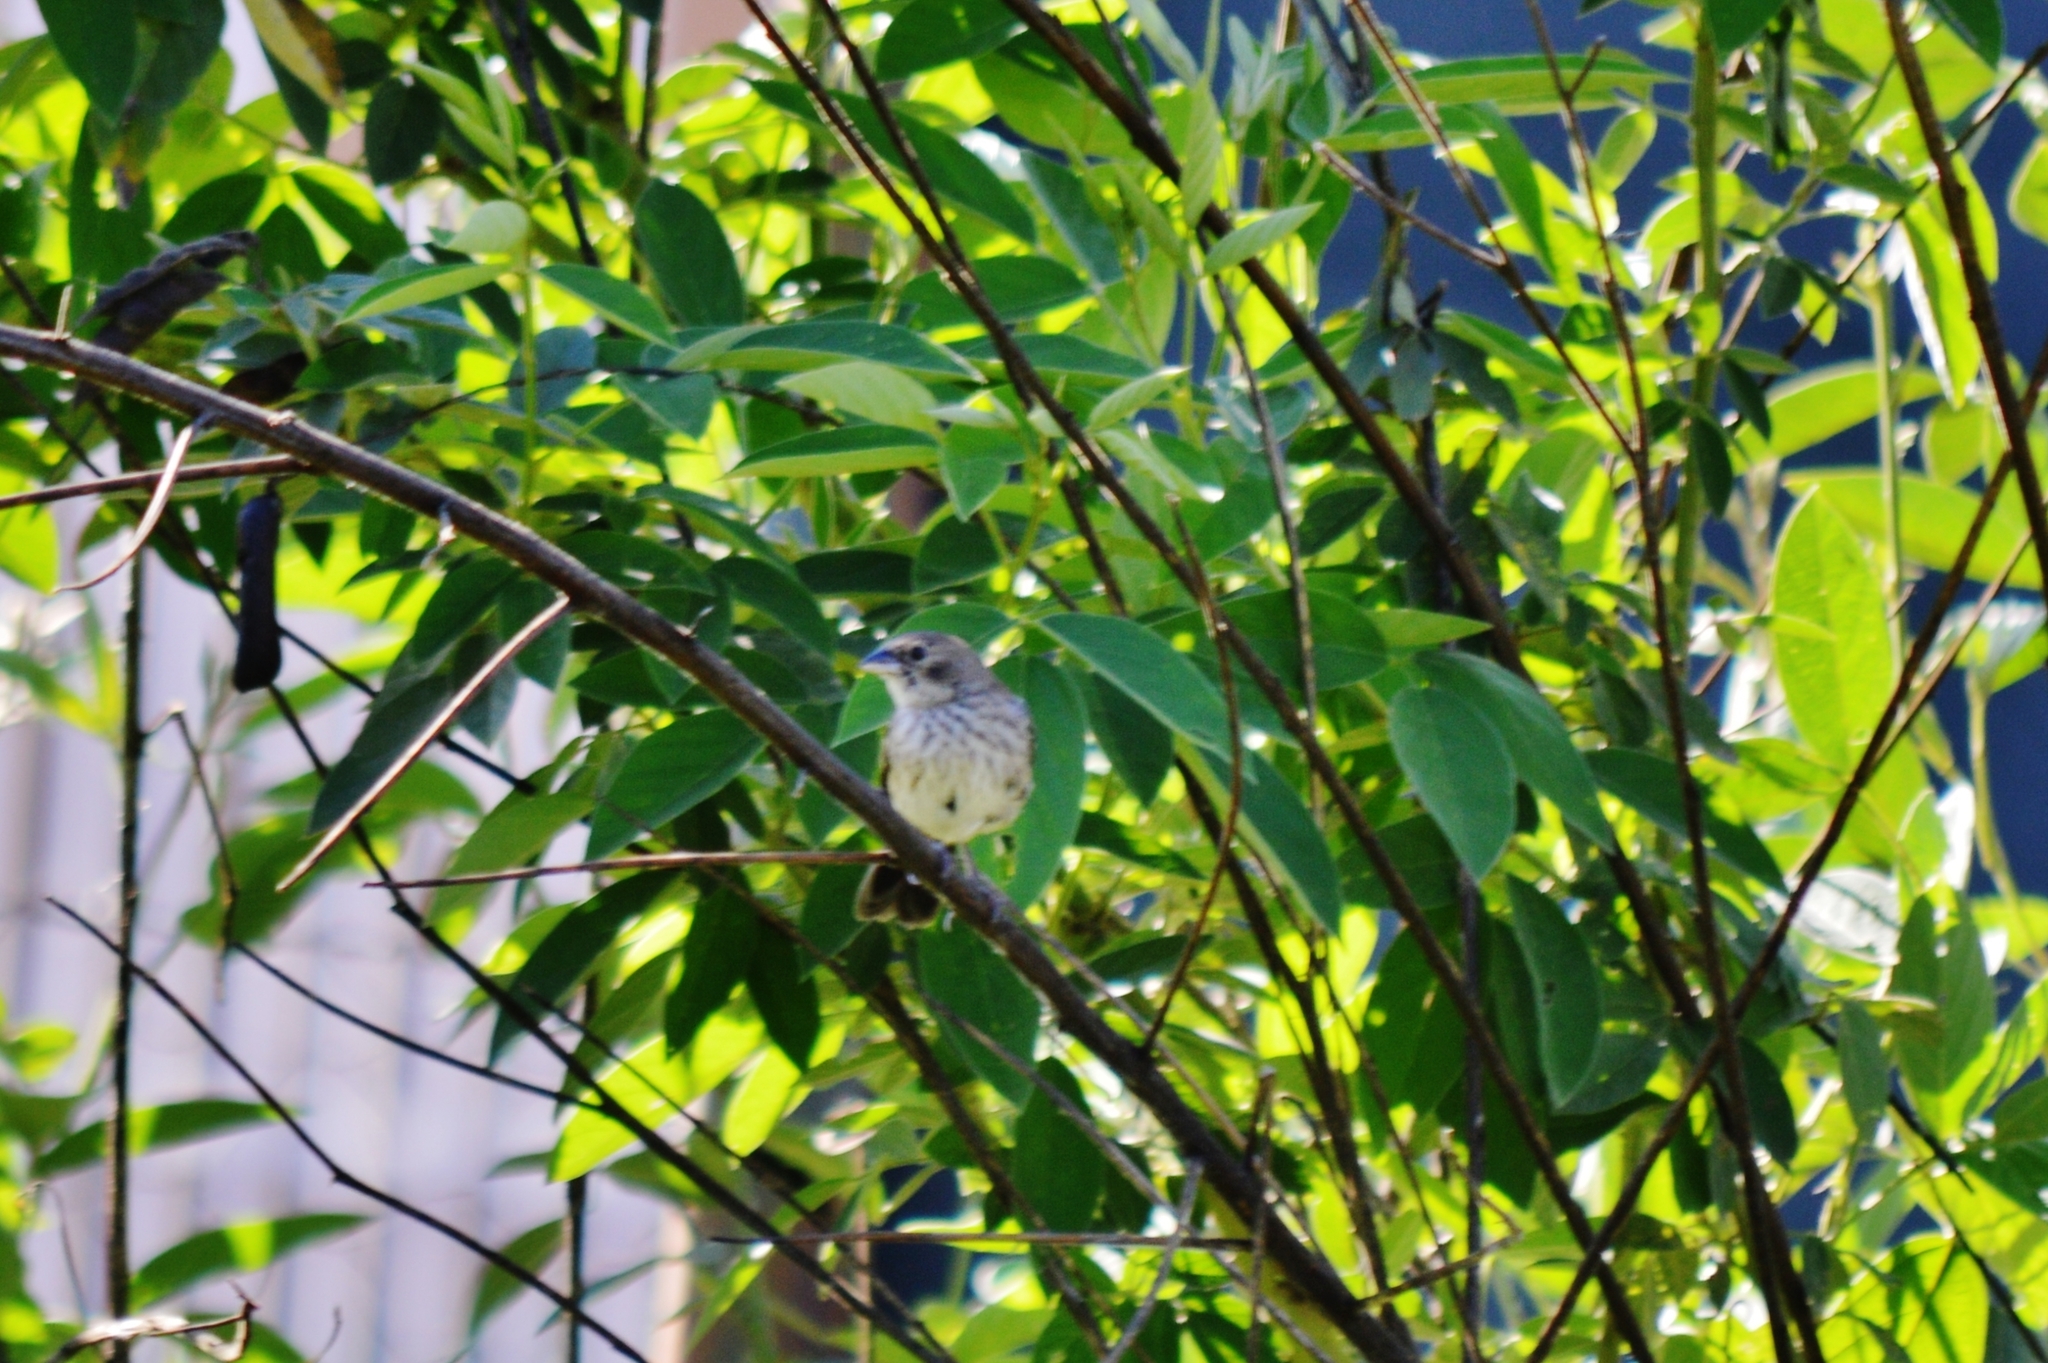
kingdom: Animalia
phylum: Chordata
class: Aves
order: Passeriformes
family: Thraupidae
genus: Volatinia
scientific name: Volatinia jacarina
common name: Blue-black grassquit
